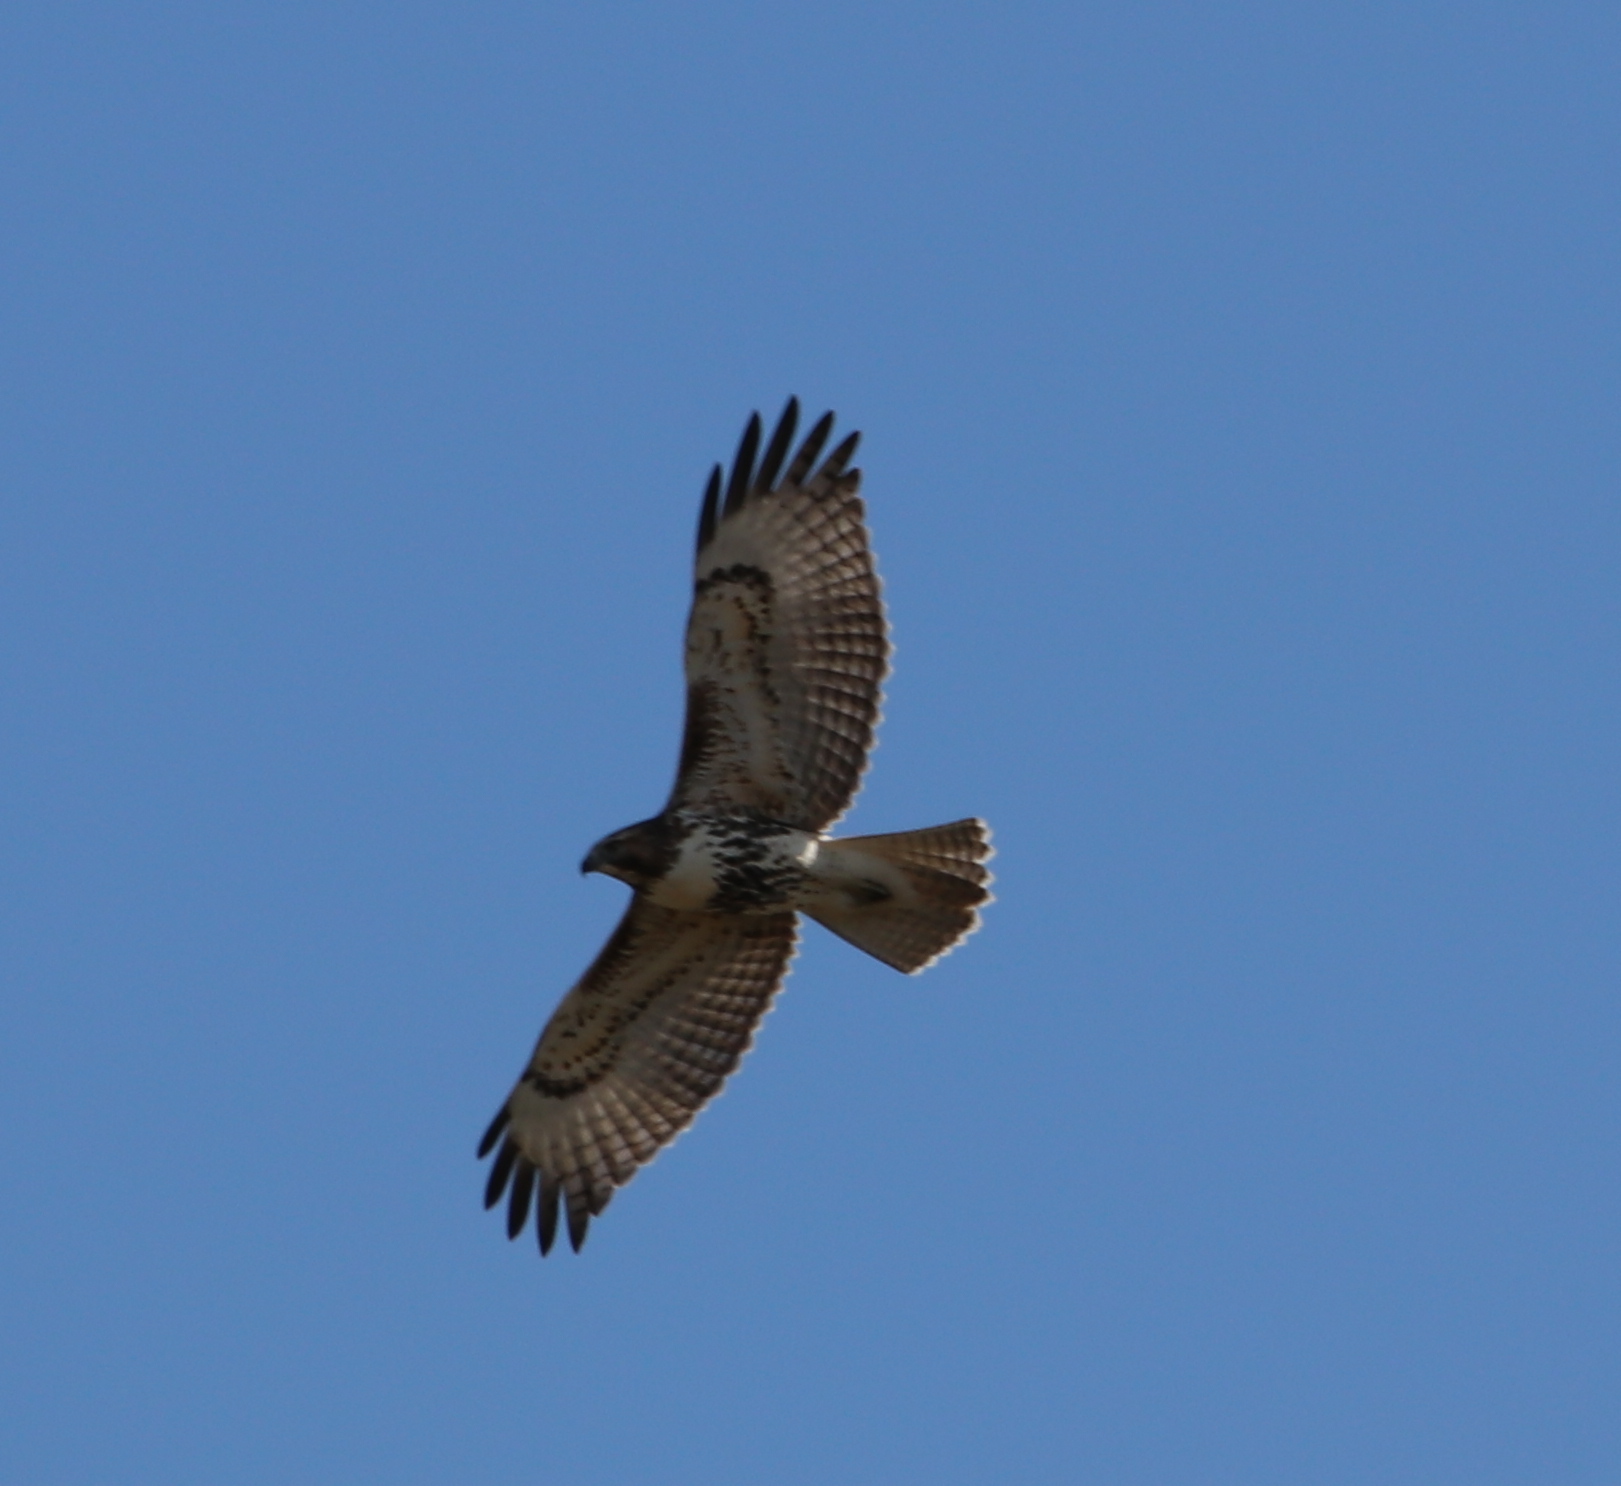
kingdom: Animalia
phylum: Chordata
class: Aves
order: Accipitriformes
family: Accipitridae
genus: Buteo
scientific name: Buteo jamaicensis
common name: Red-tailed hawk
